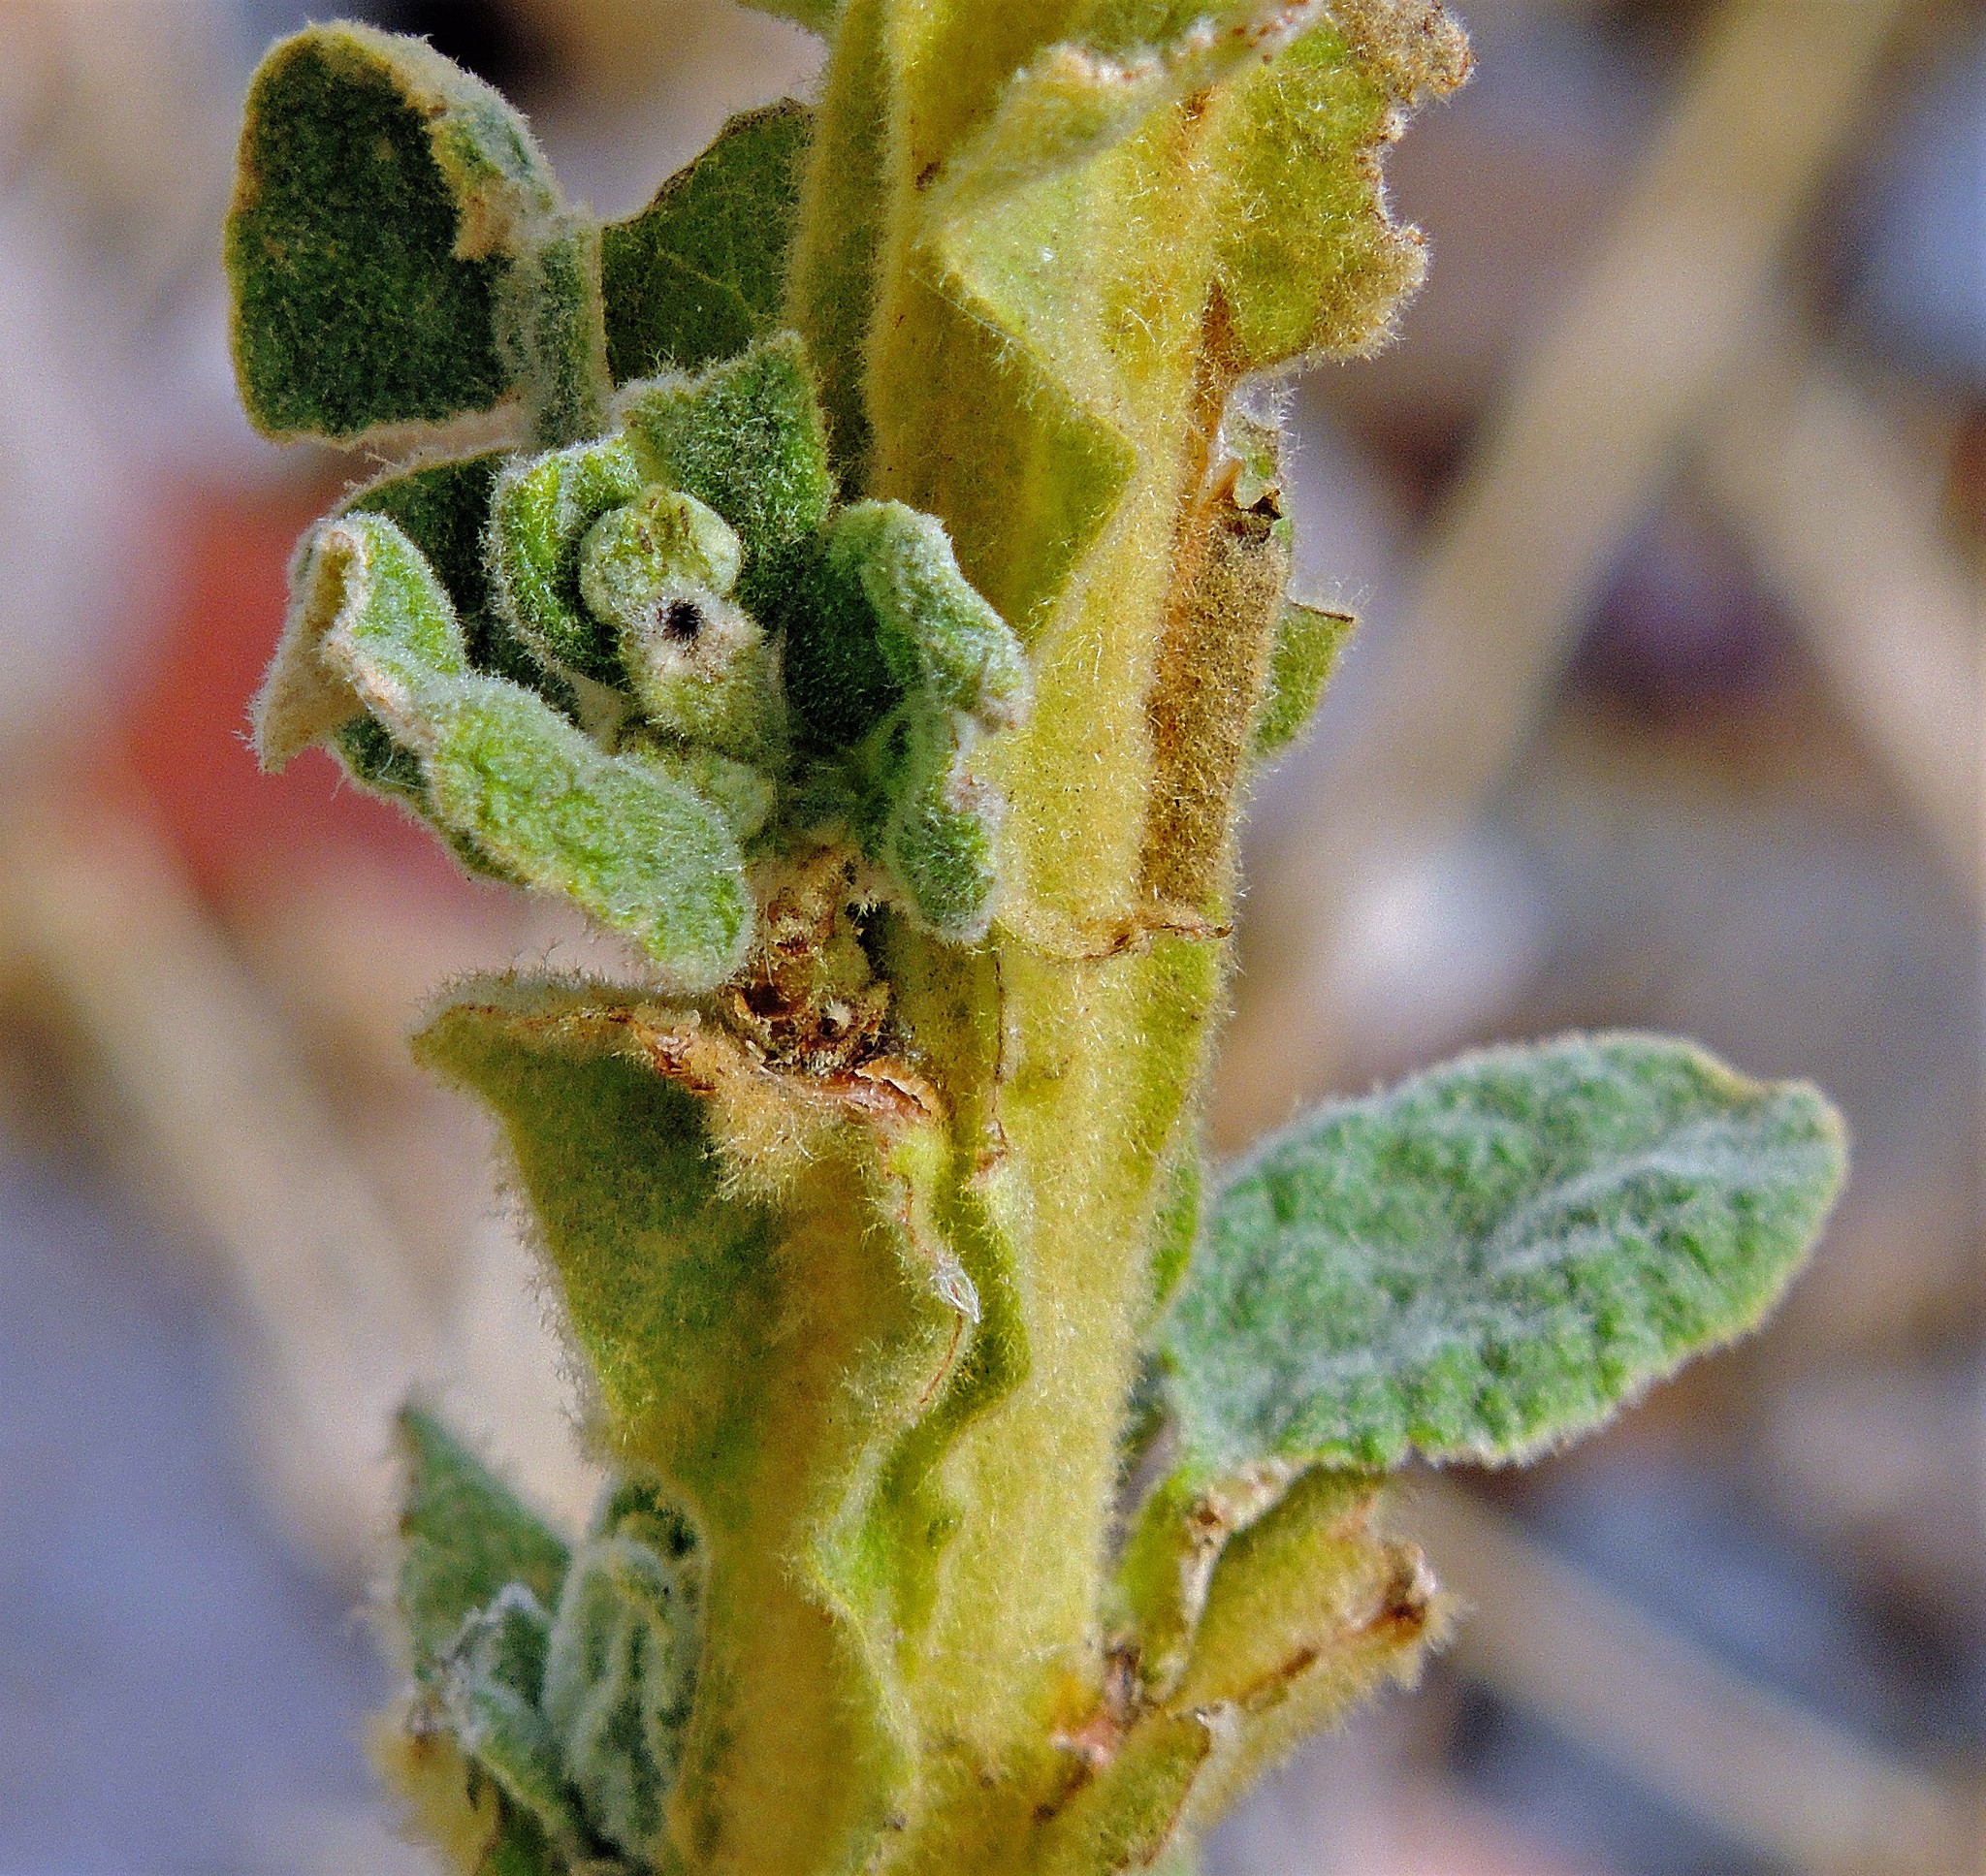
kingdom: Plantae
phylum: Tracheophyta
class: Magnoliopsida
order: Lamiales
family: Scrophulariaceae
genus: Verbascum
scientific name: Verbascum thapsus
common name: Common mullein
